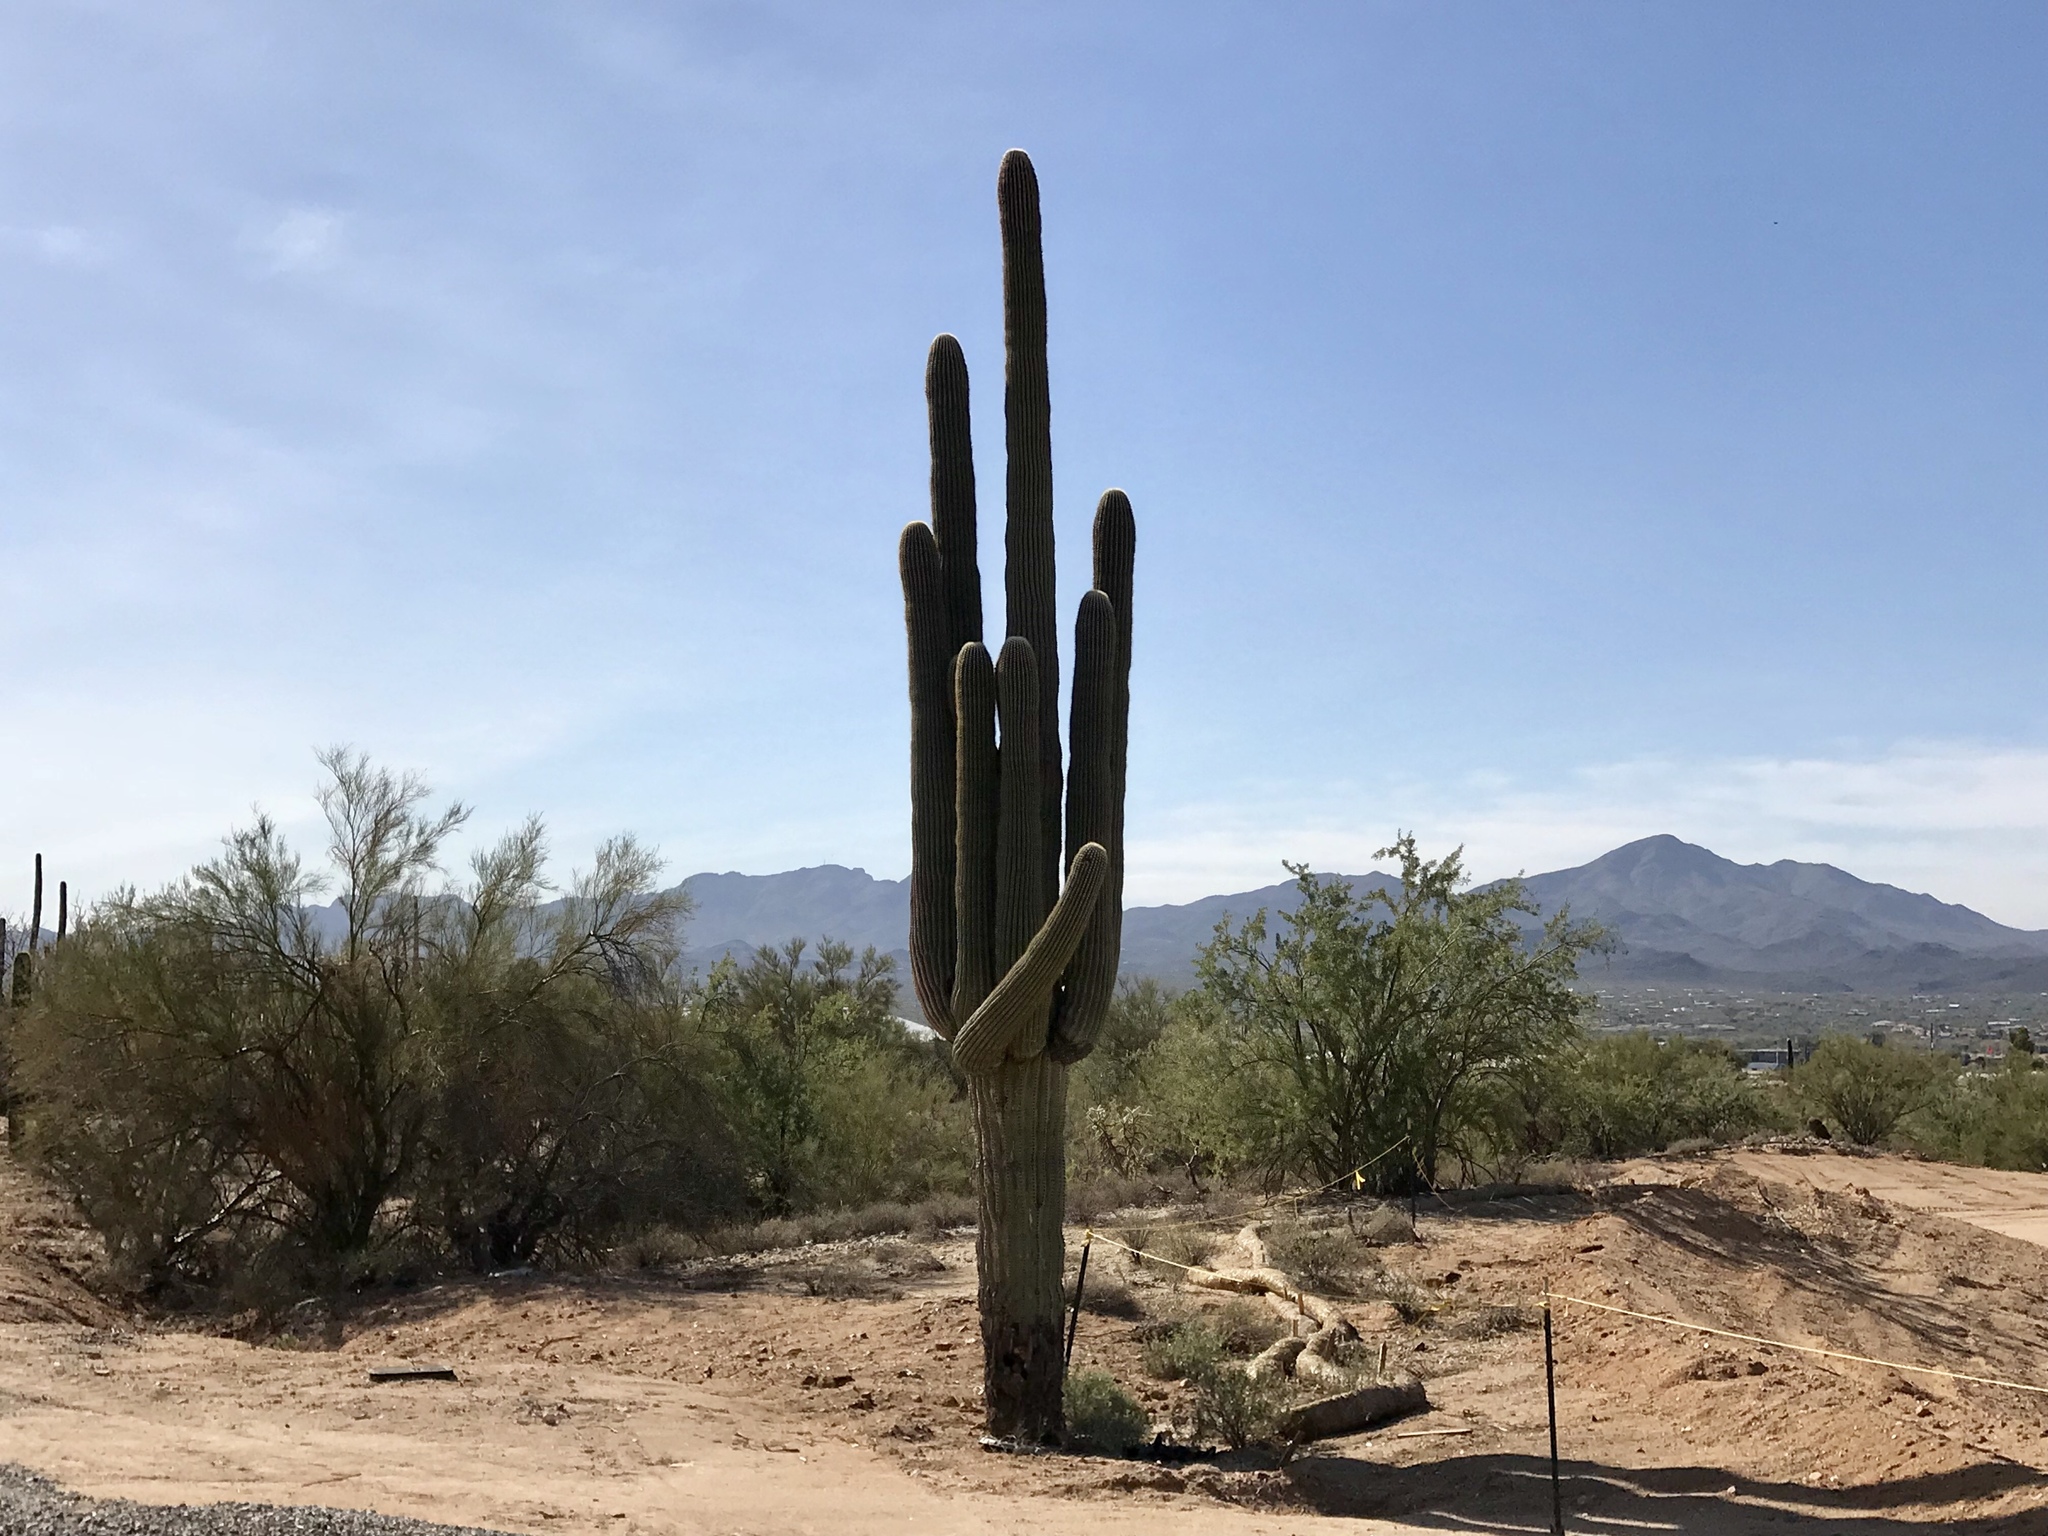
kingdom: Plantae
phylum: Tracheophyta
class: Magnoliopsida
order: Caryophyllales
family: Cactaceae
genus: Carnegiea
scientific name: Carnegiea gigantea
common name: Saguaro
